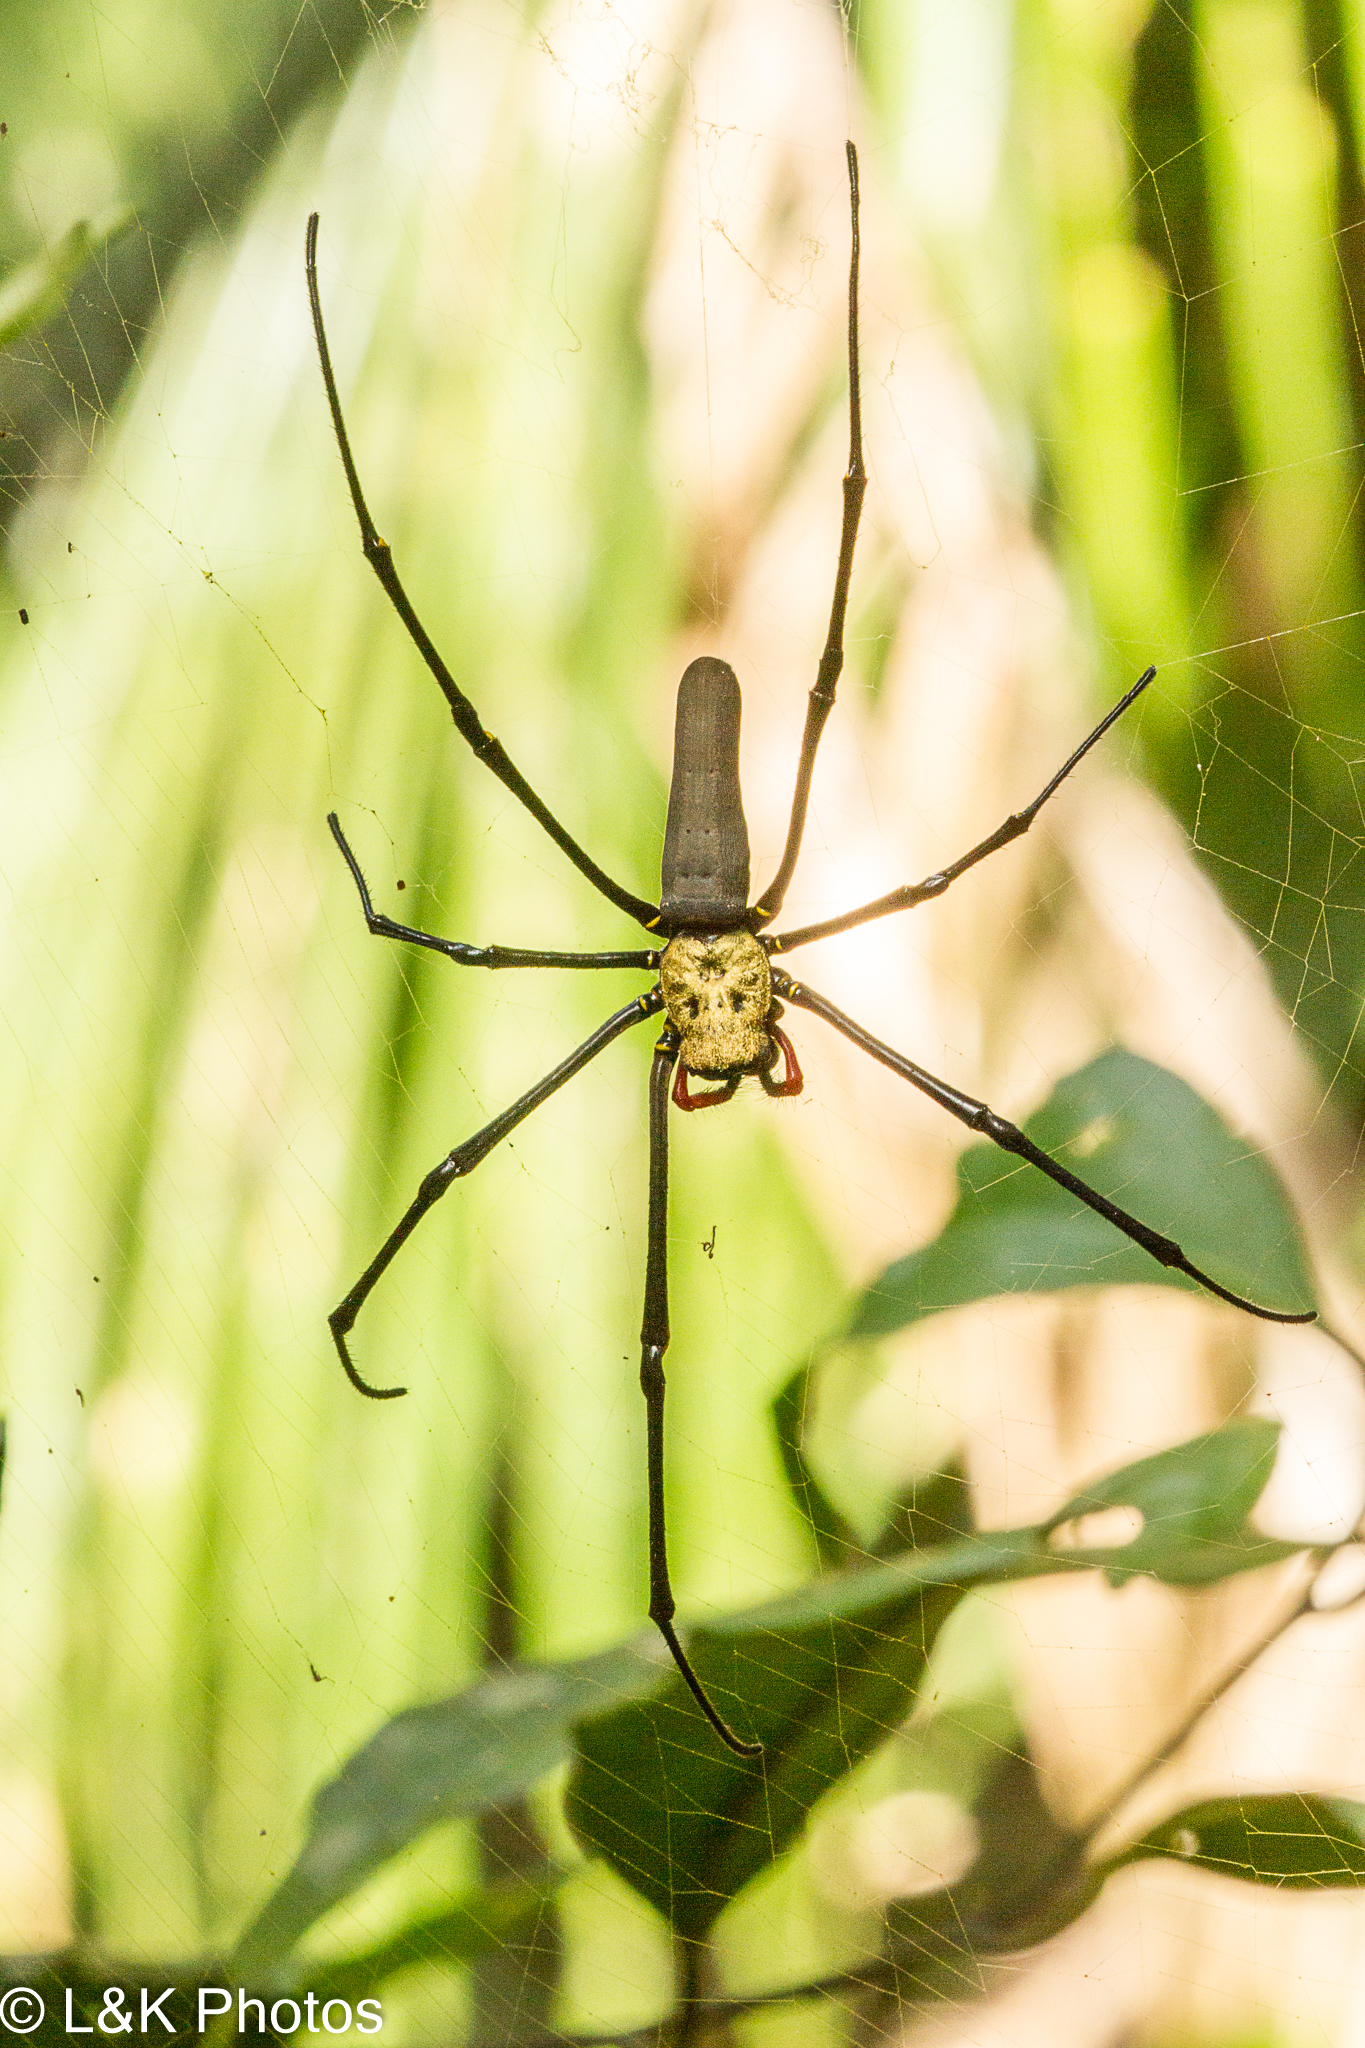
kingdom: Animalia
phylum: Arthropoda
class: Arachnida
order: Araneae
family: Araneidae
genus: Nephila
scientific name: Nephila pilipes
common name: Giant golden orb weaver
